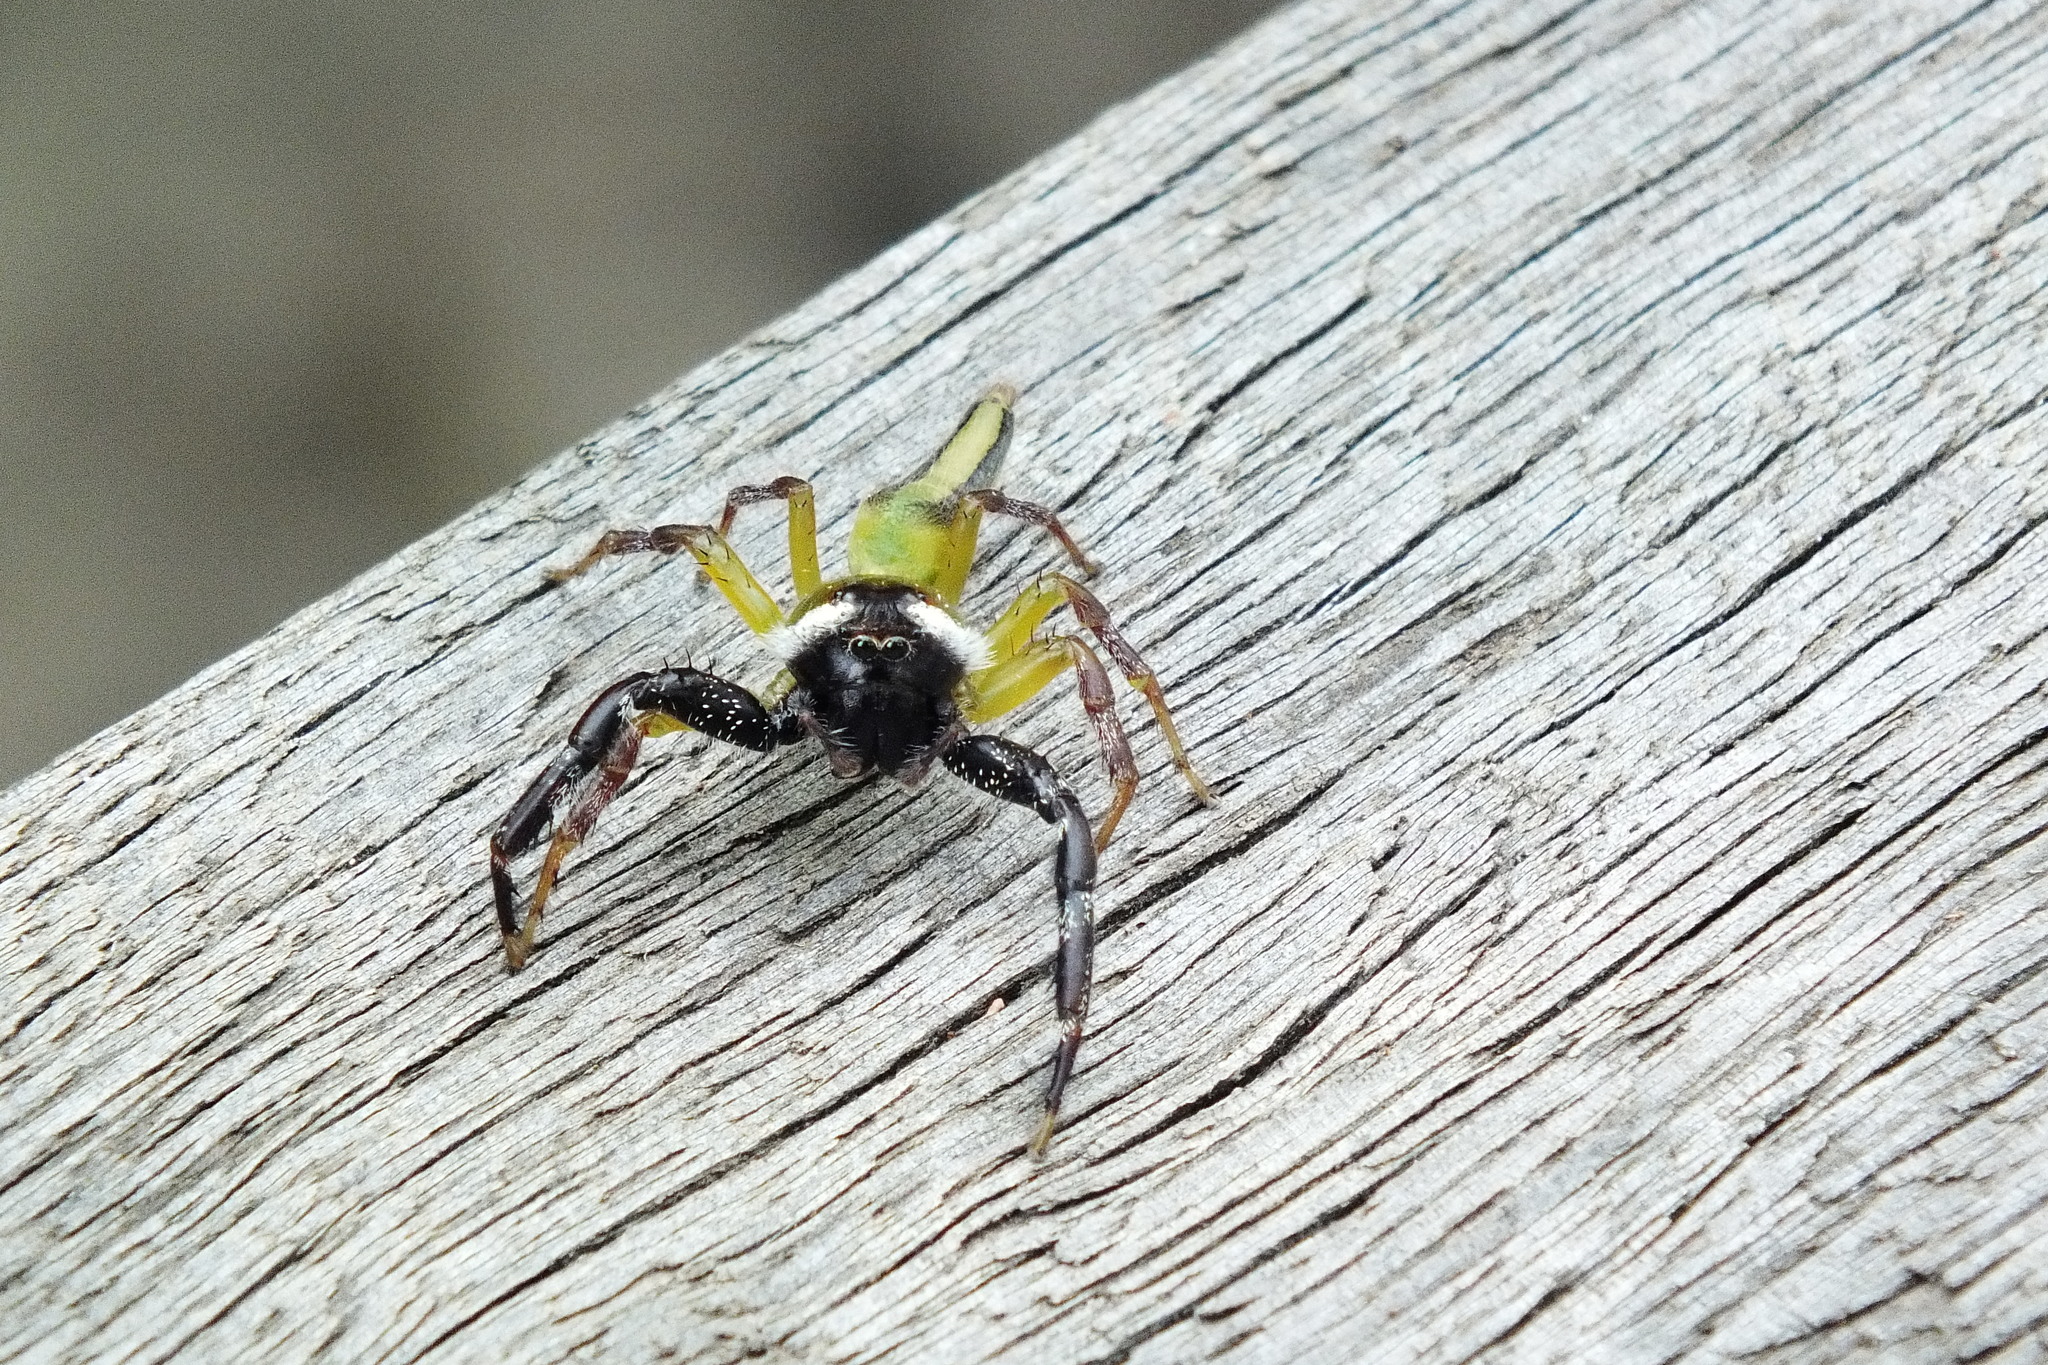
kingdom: Animalia
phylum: Arthropoda
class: Arachnida
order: Araneae
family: Salticidae
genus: Mopsus
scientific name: Mopsus mormon
